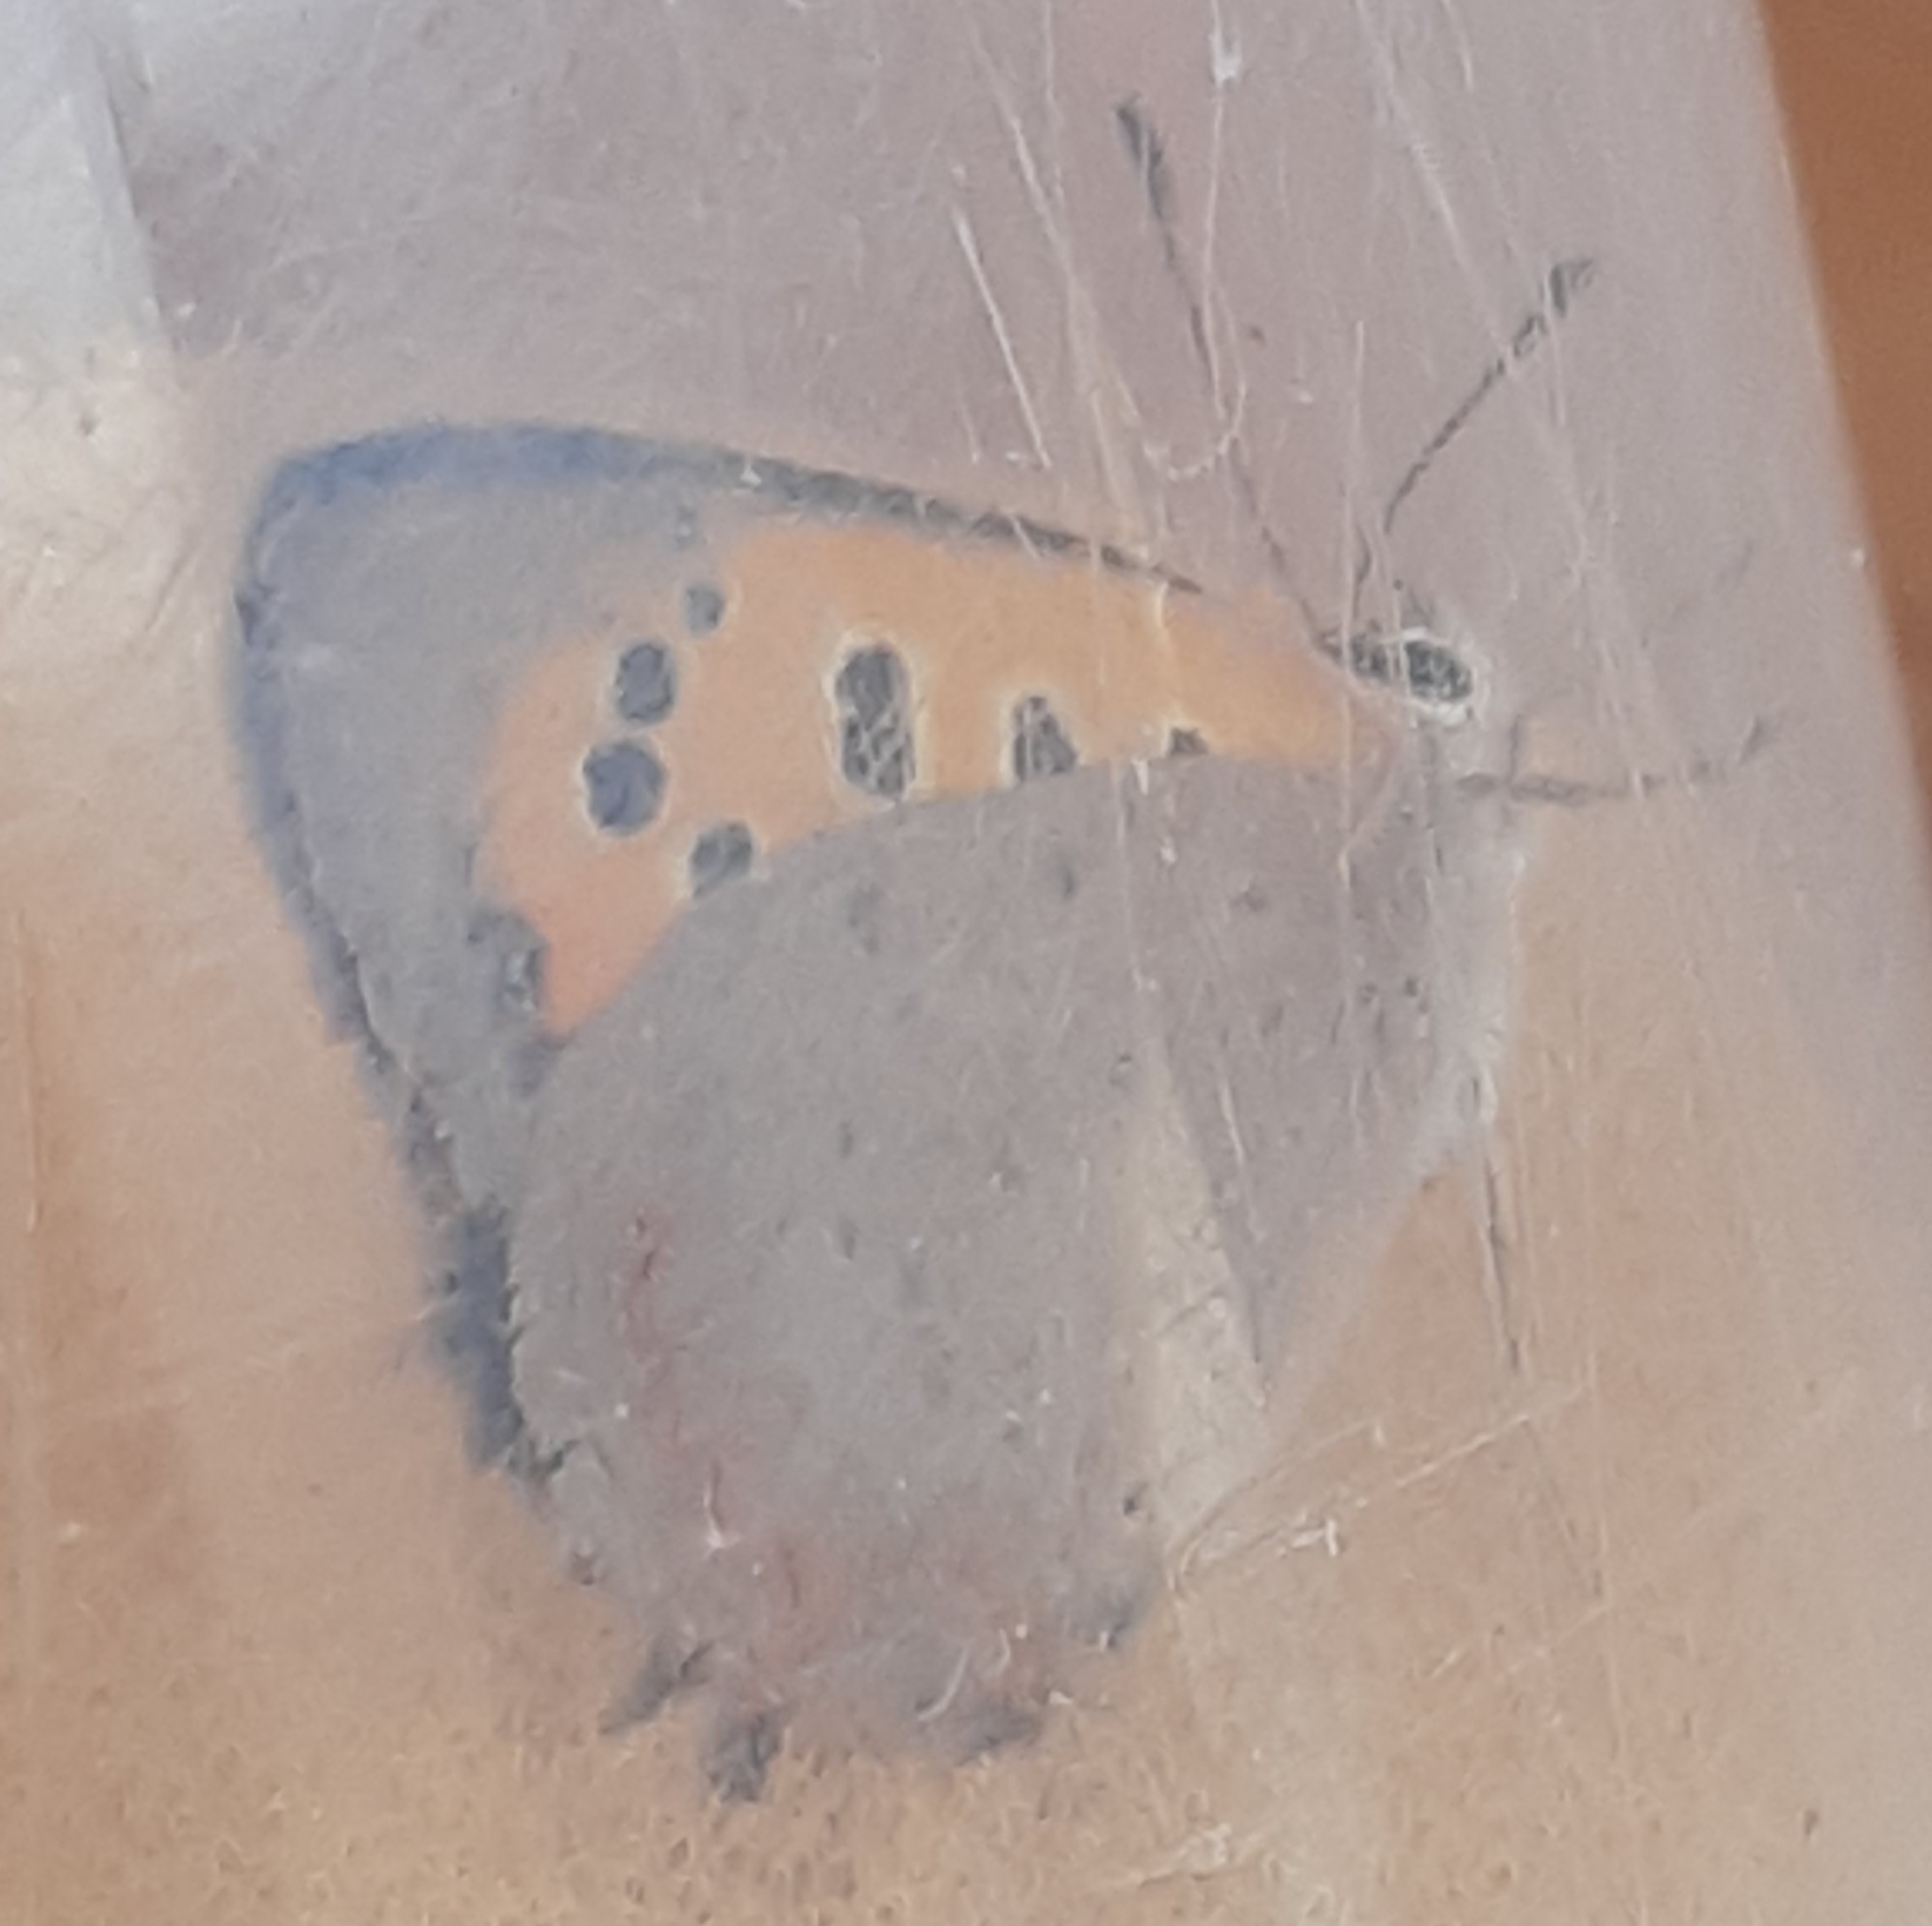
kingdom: Animalia
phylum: Arthropoda
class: Insecta
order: Lepidoptera
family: Lycaenidae
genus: Lycaena
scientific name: Lycaena phlaeas
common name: Small copper
